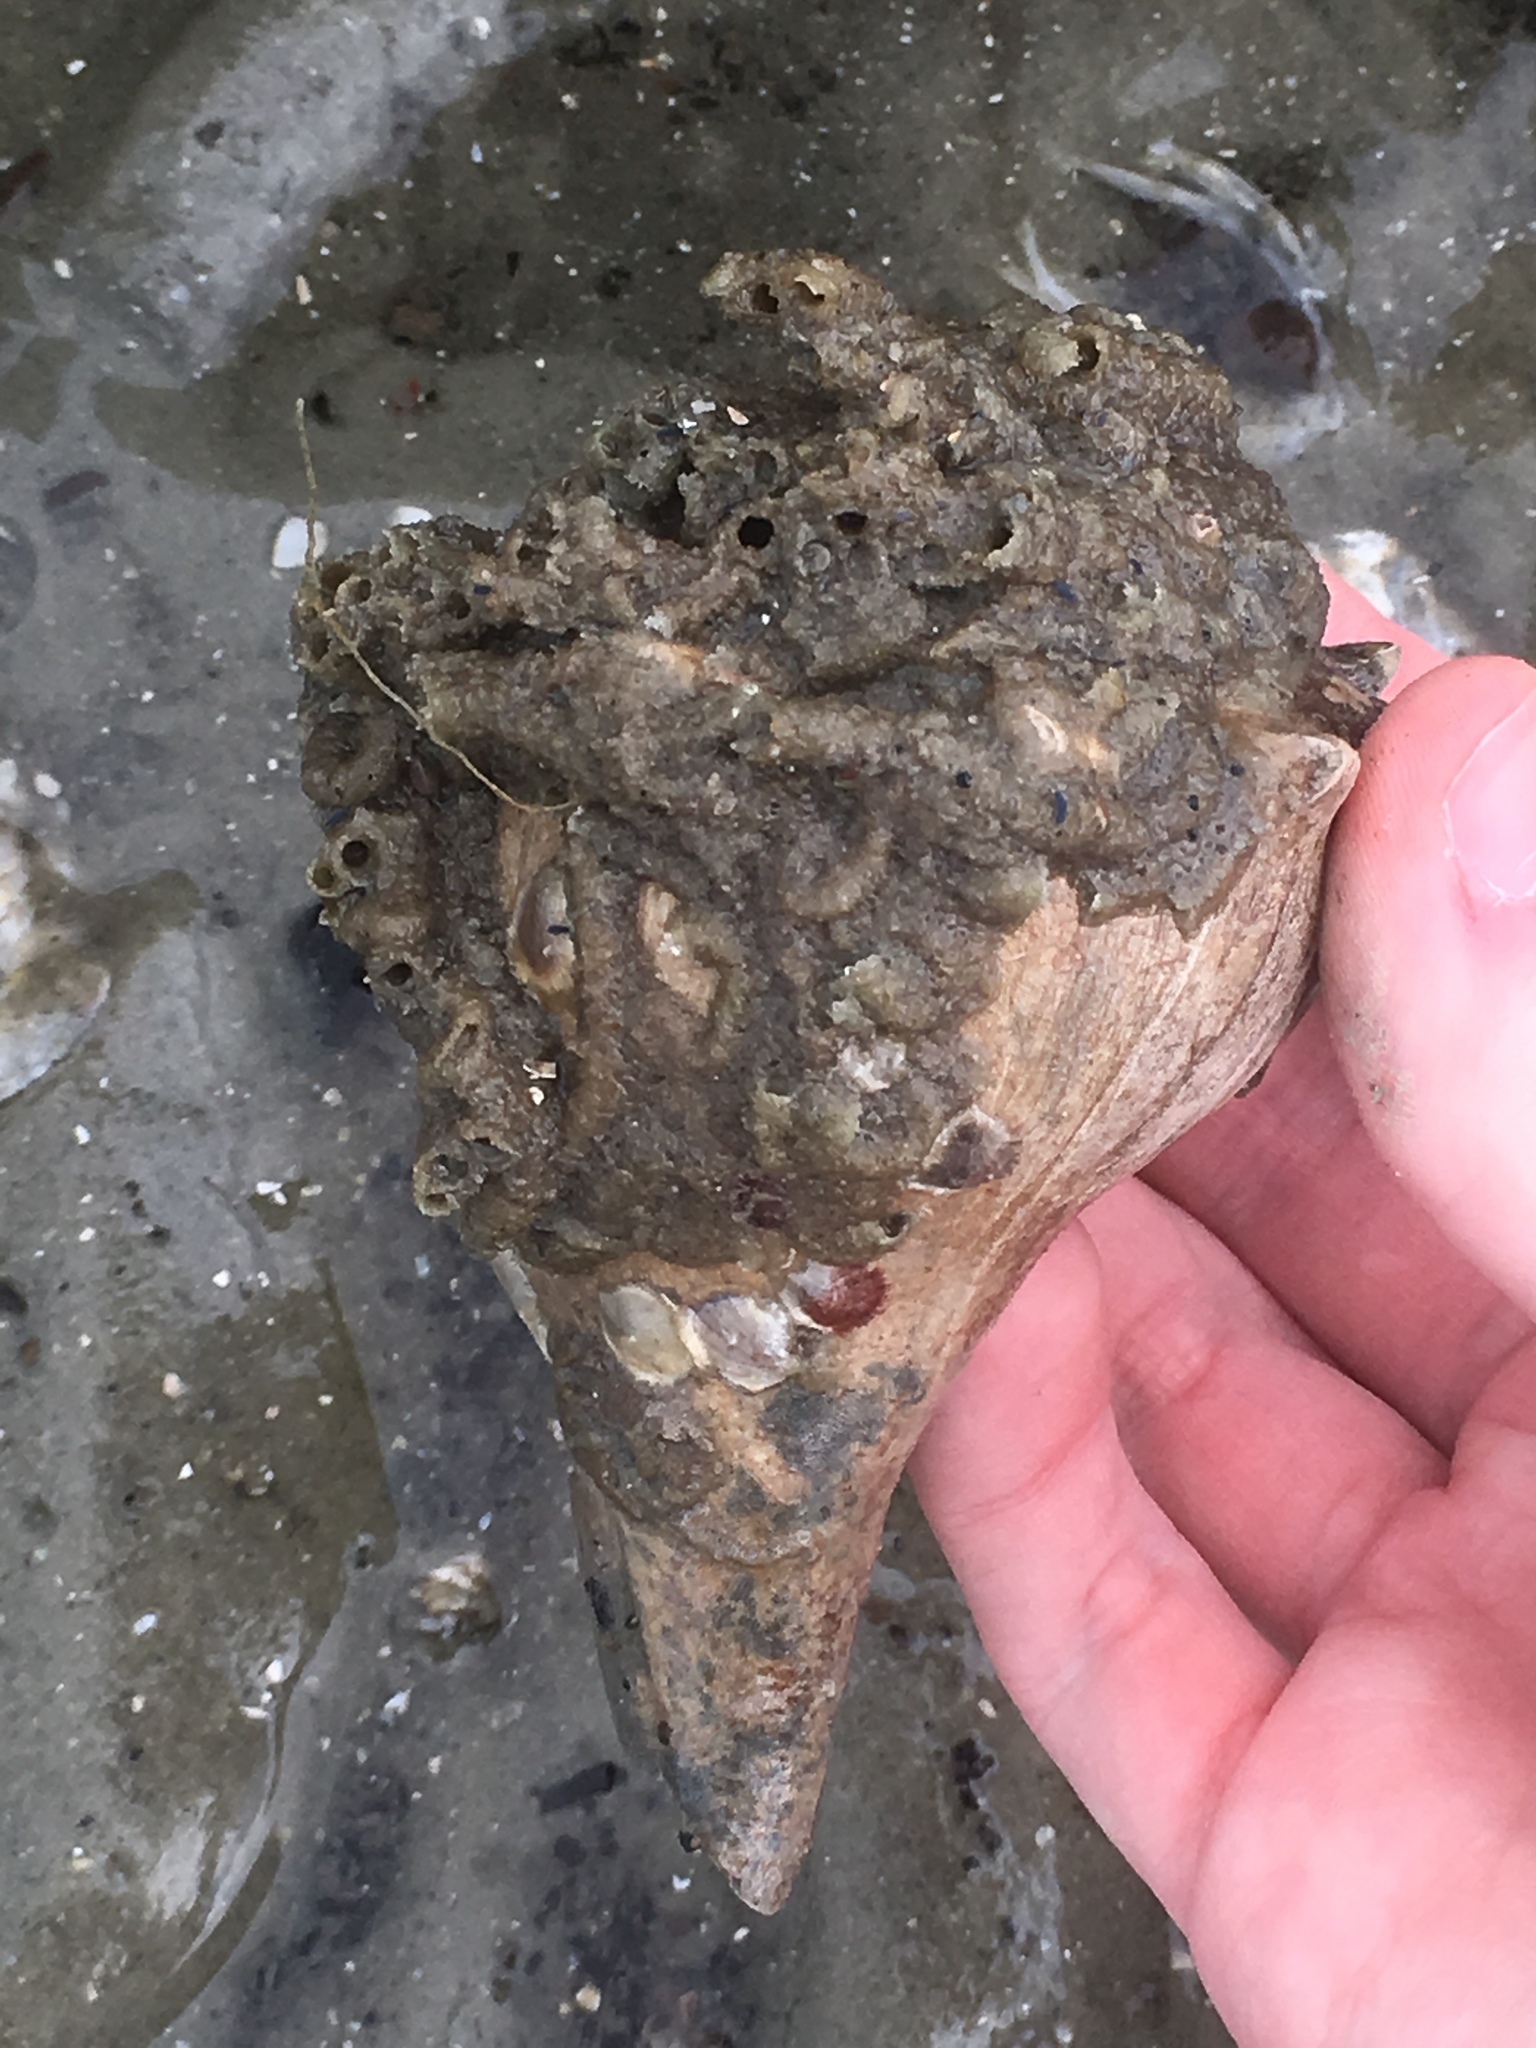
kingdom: Animalia
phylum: Mollusca
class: Gastropoda
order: Neogastropoda
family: Busyconidae
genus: Busycon
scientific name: Busycon carica
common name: Knobbed whelk
